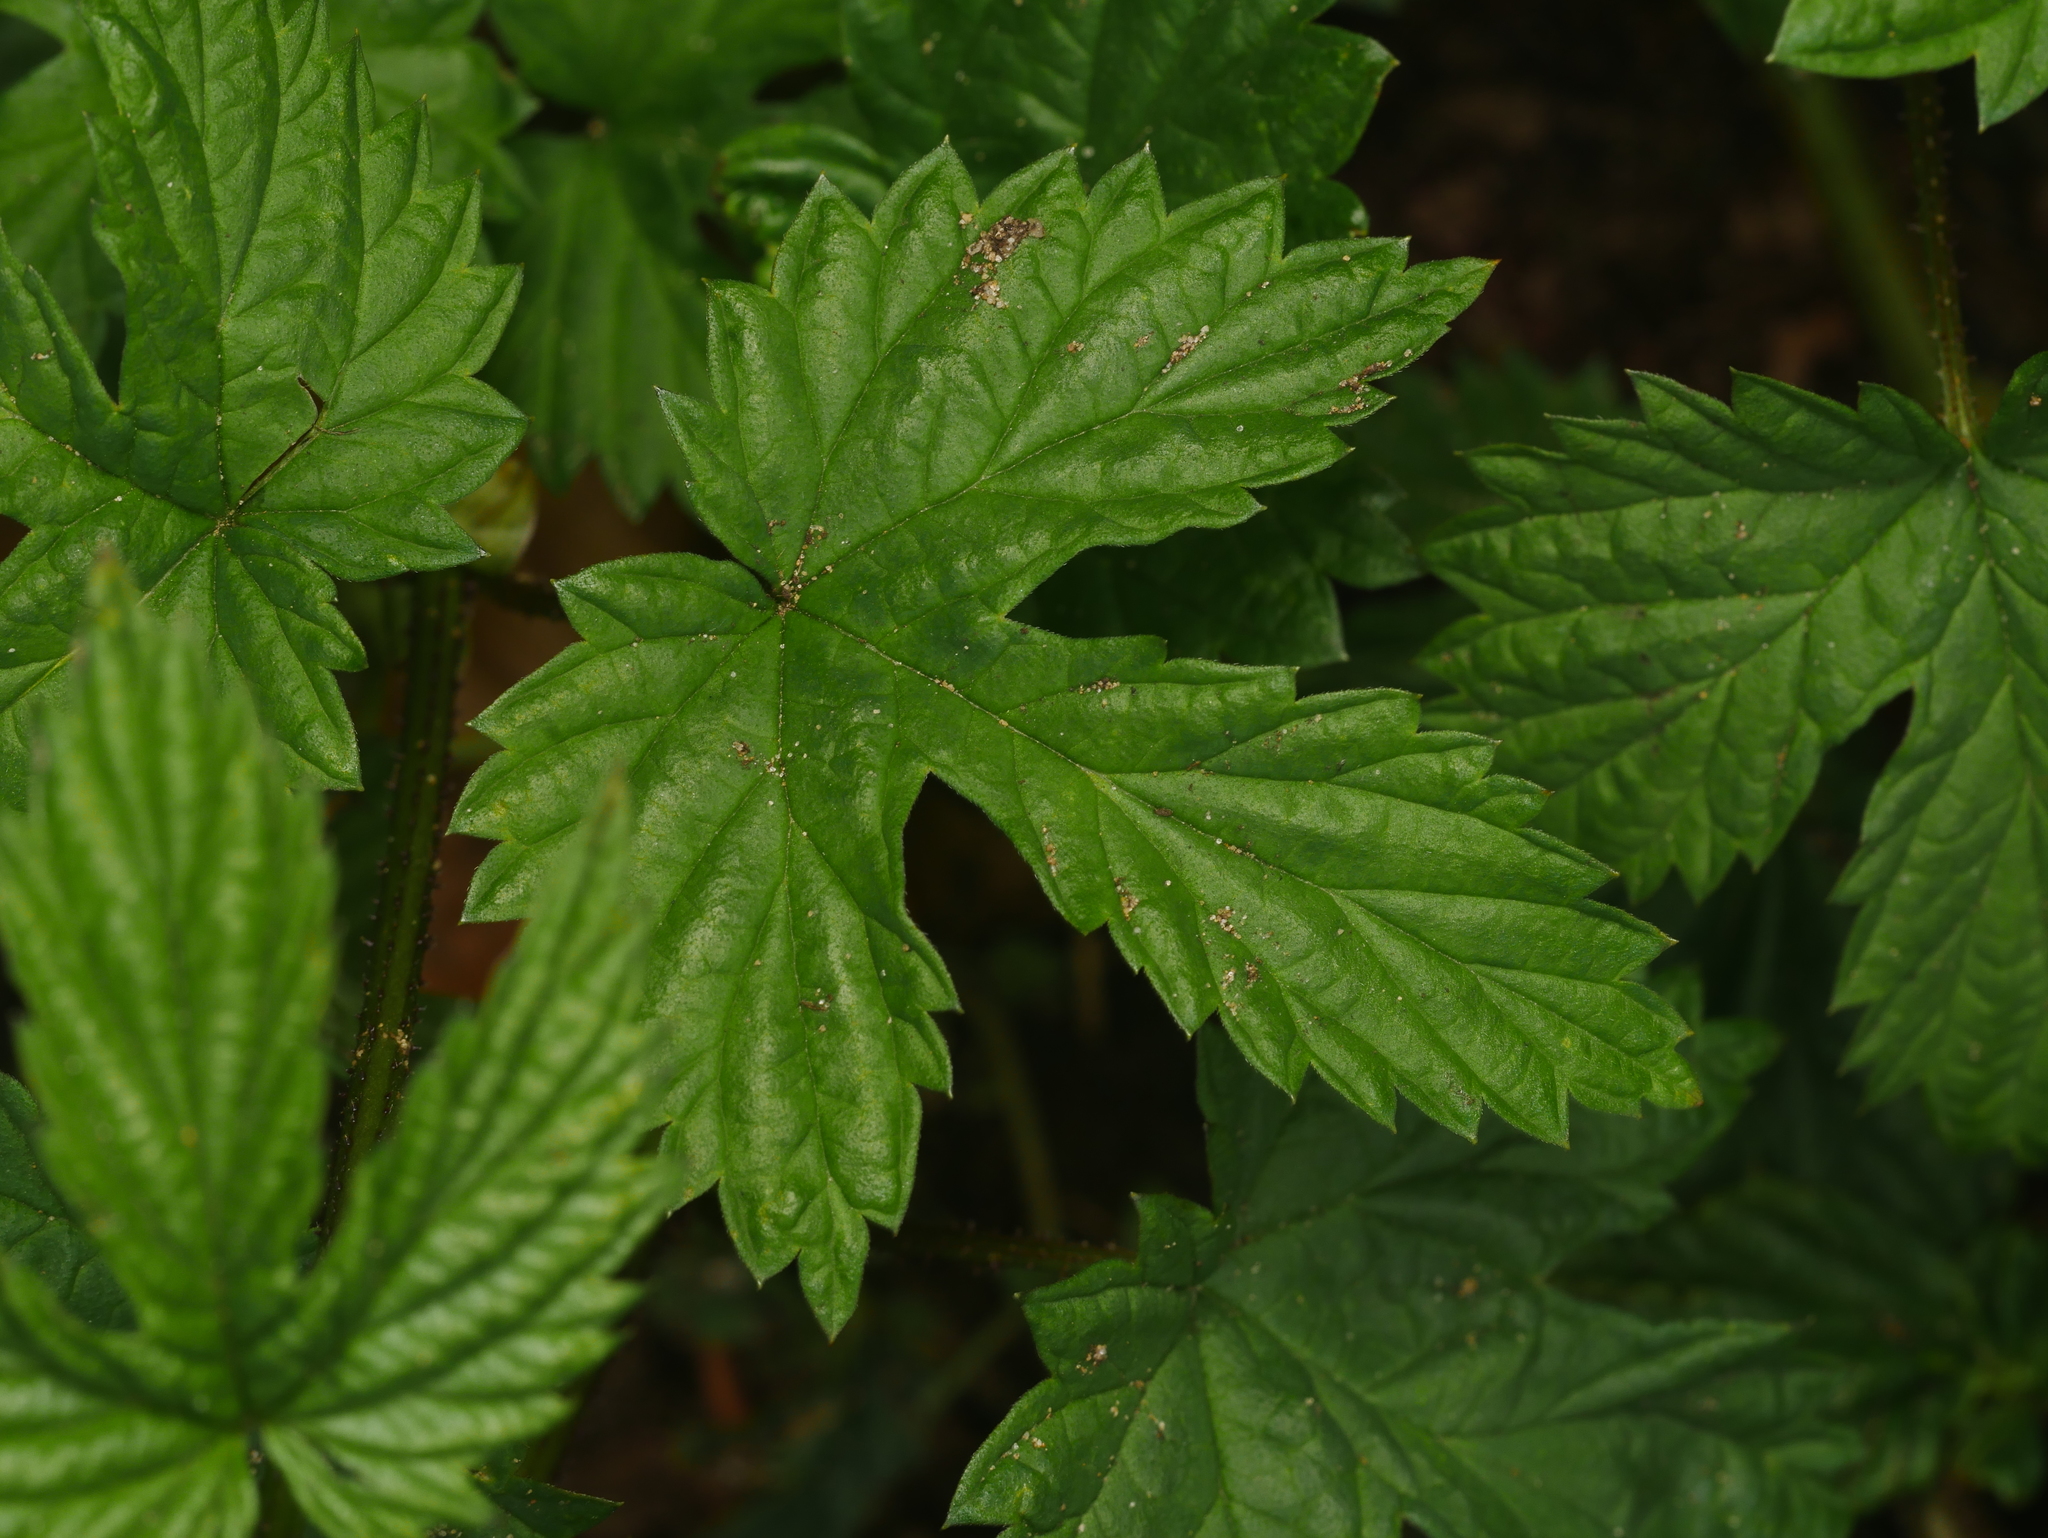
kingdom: Plantae
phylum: Tracheophyta
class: Magnoliopsida
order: Rosales
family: Cannabaceae
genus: Humulus
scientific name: Humulus lupulus
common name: Hop
